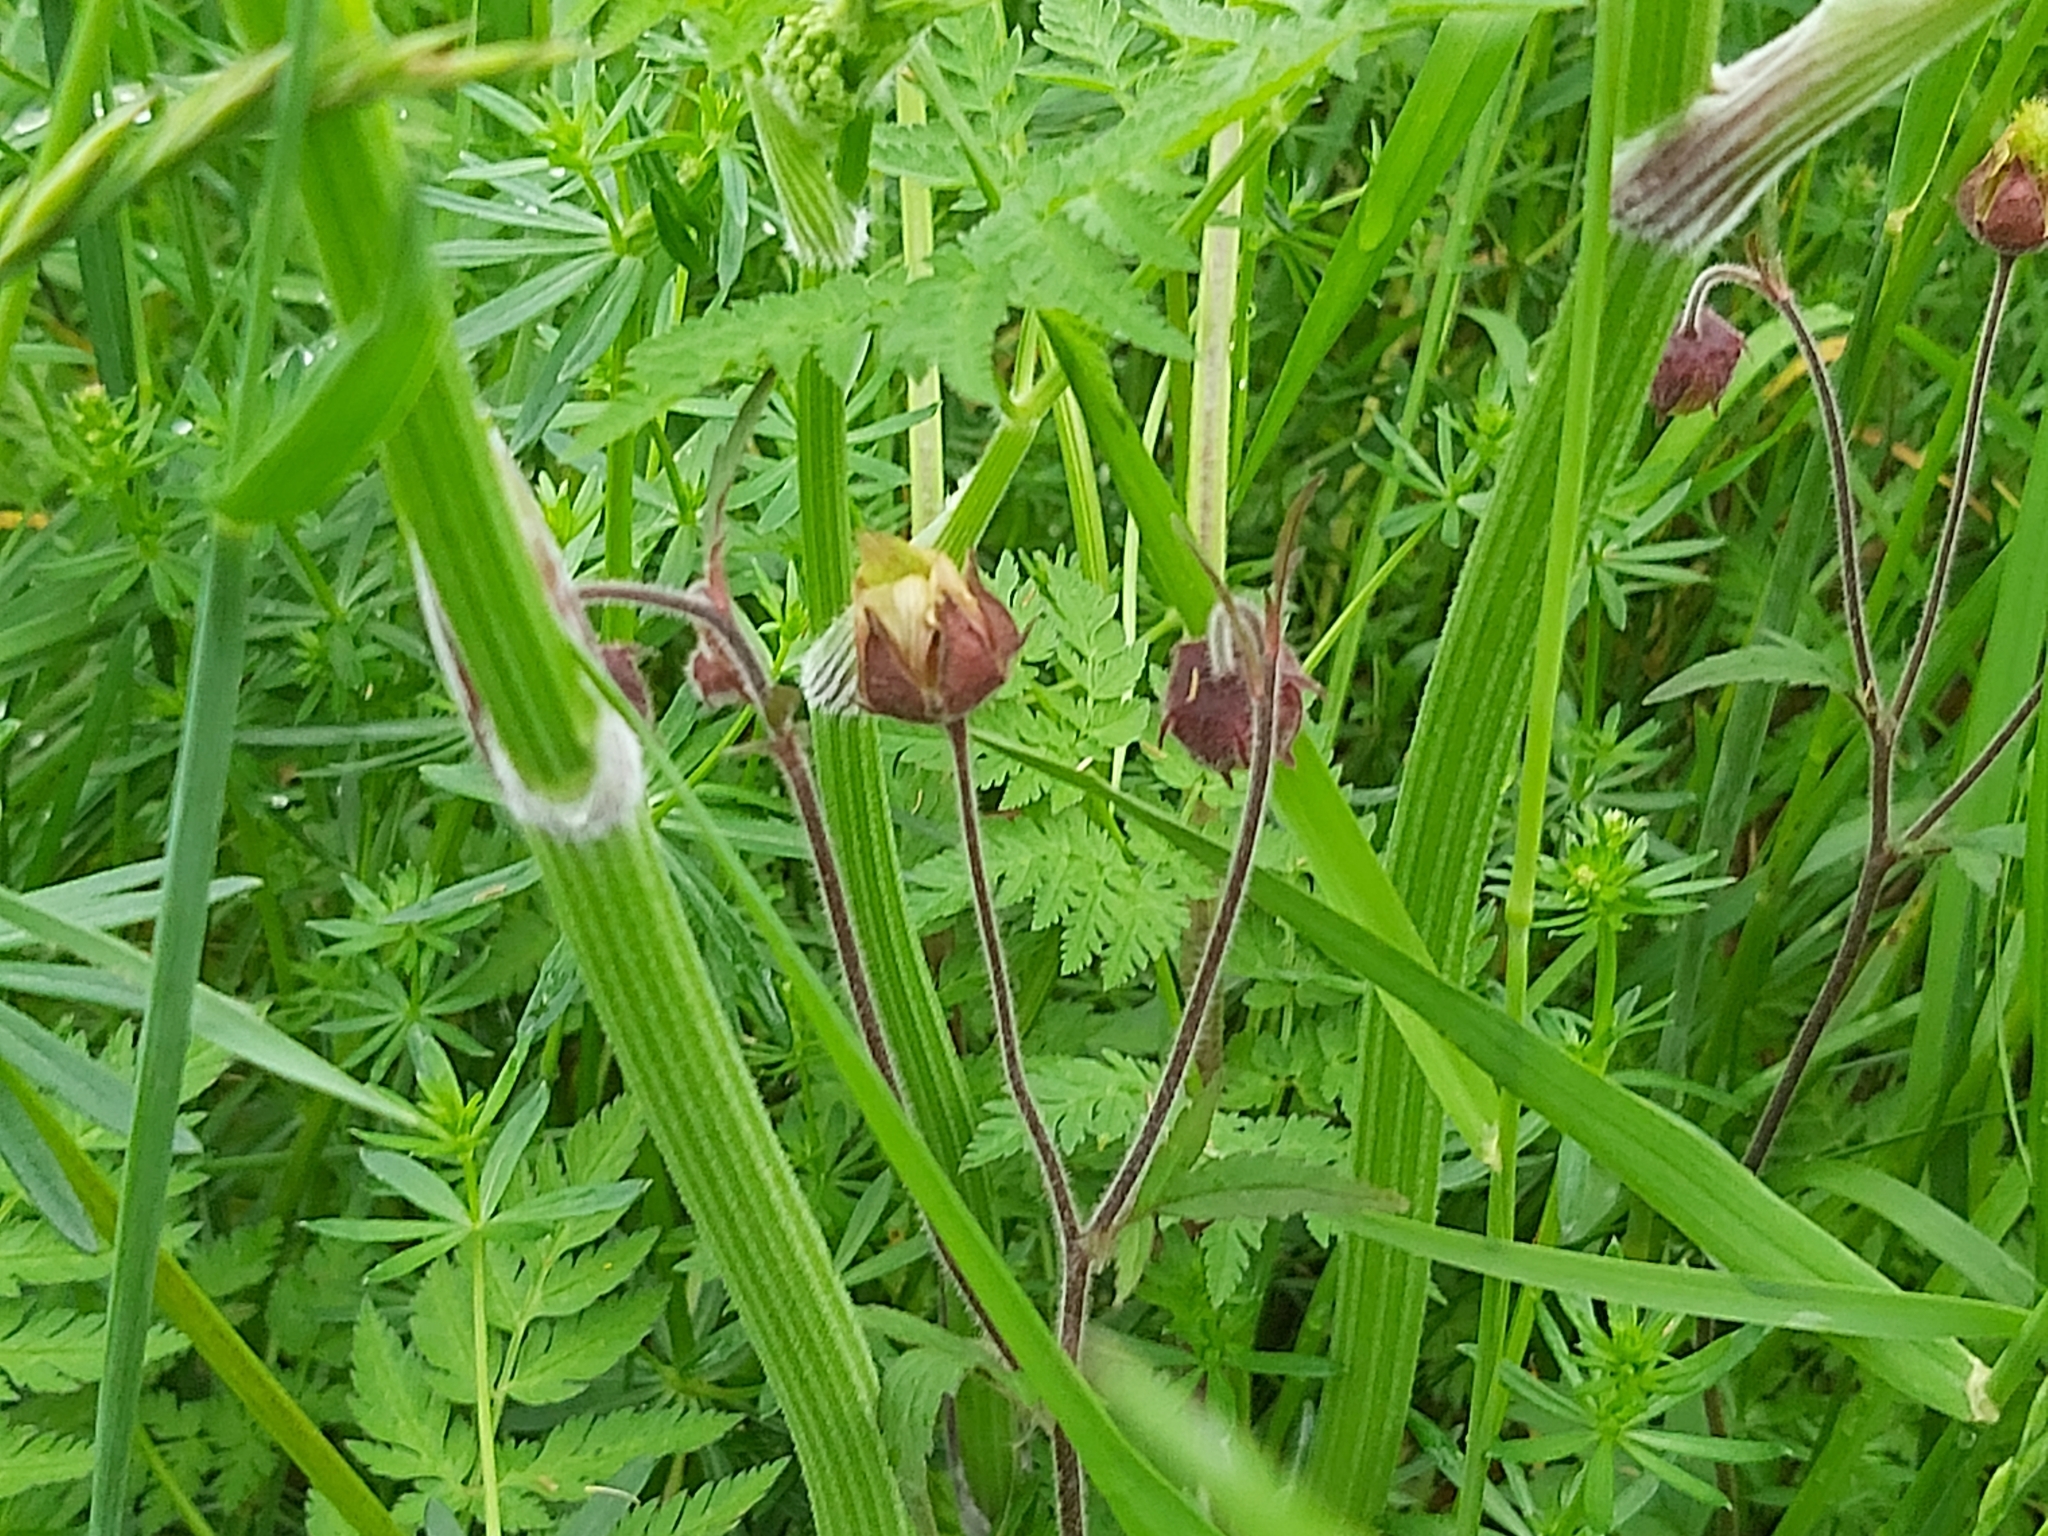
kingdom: Plantae
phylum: Tracheophyta
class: Magnoliopsida
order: Rosales
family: Rosaceae
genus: Geum
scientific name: Geum rivale
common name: Water avens
